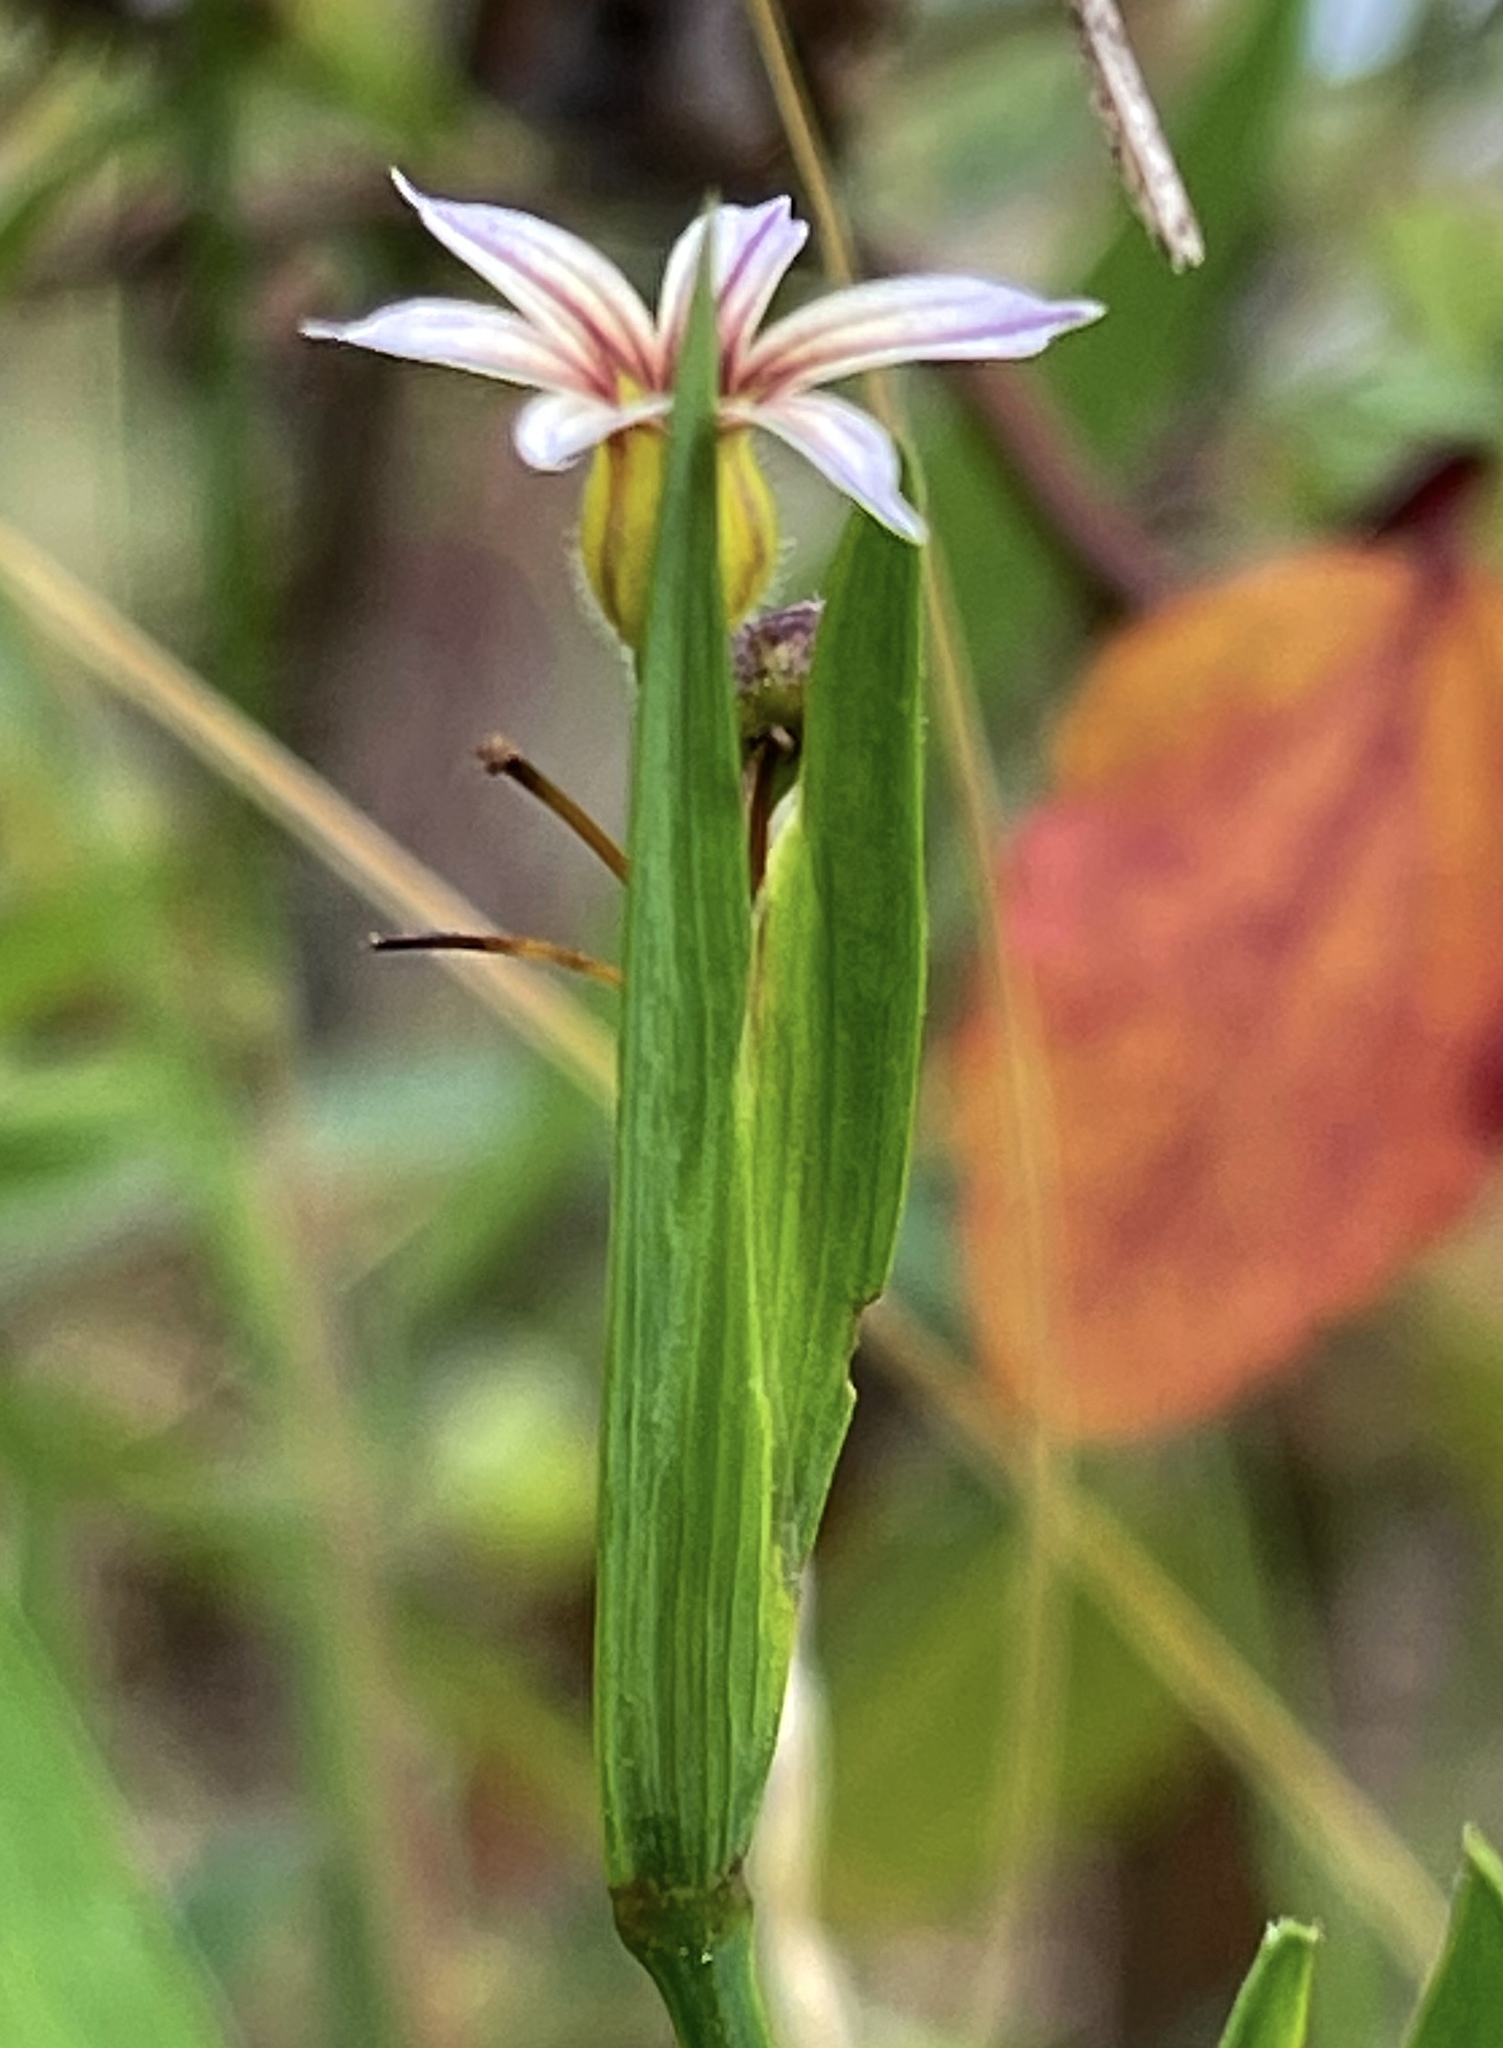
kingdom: Plantae
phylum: Tracheophyta
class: Liliopsida
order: Asparagales
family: Iridaceae
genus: Sisyrinchium
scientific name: Sisyrinchium micranthum
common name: Bermuda pigroot
